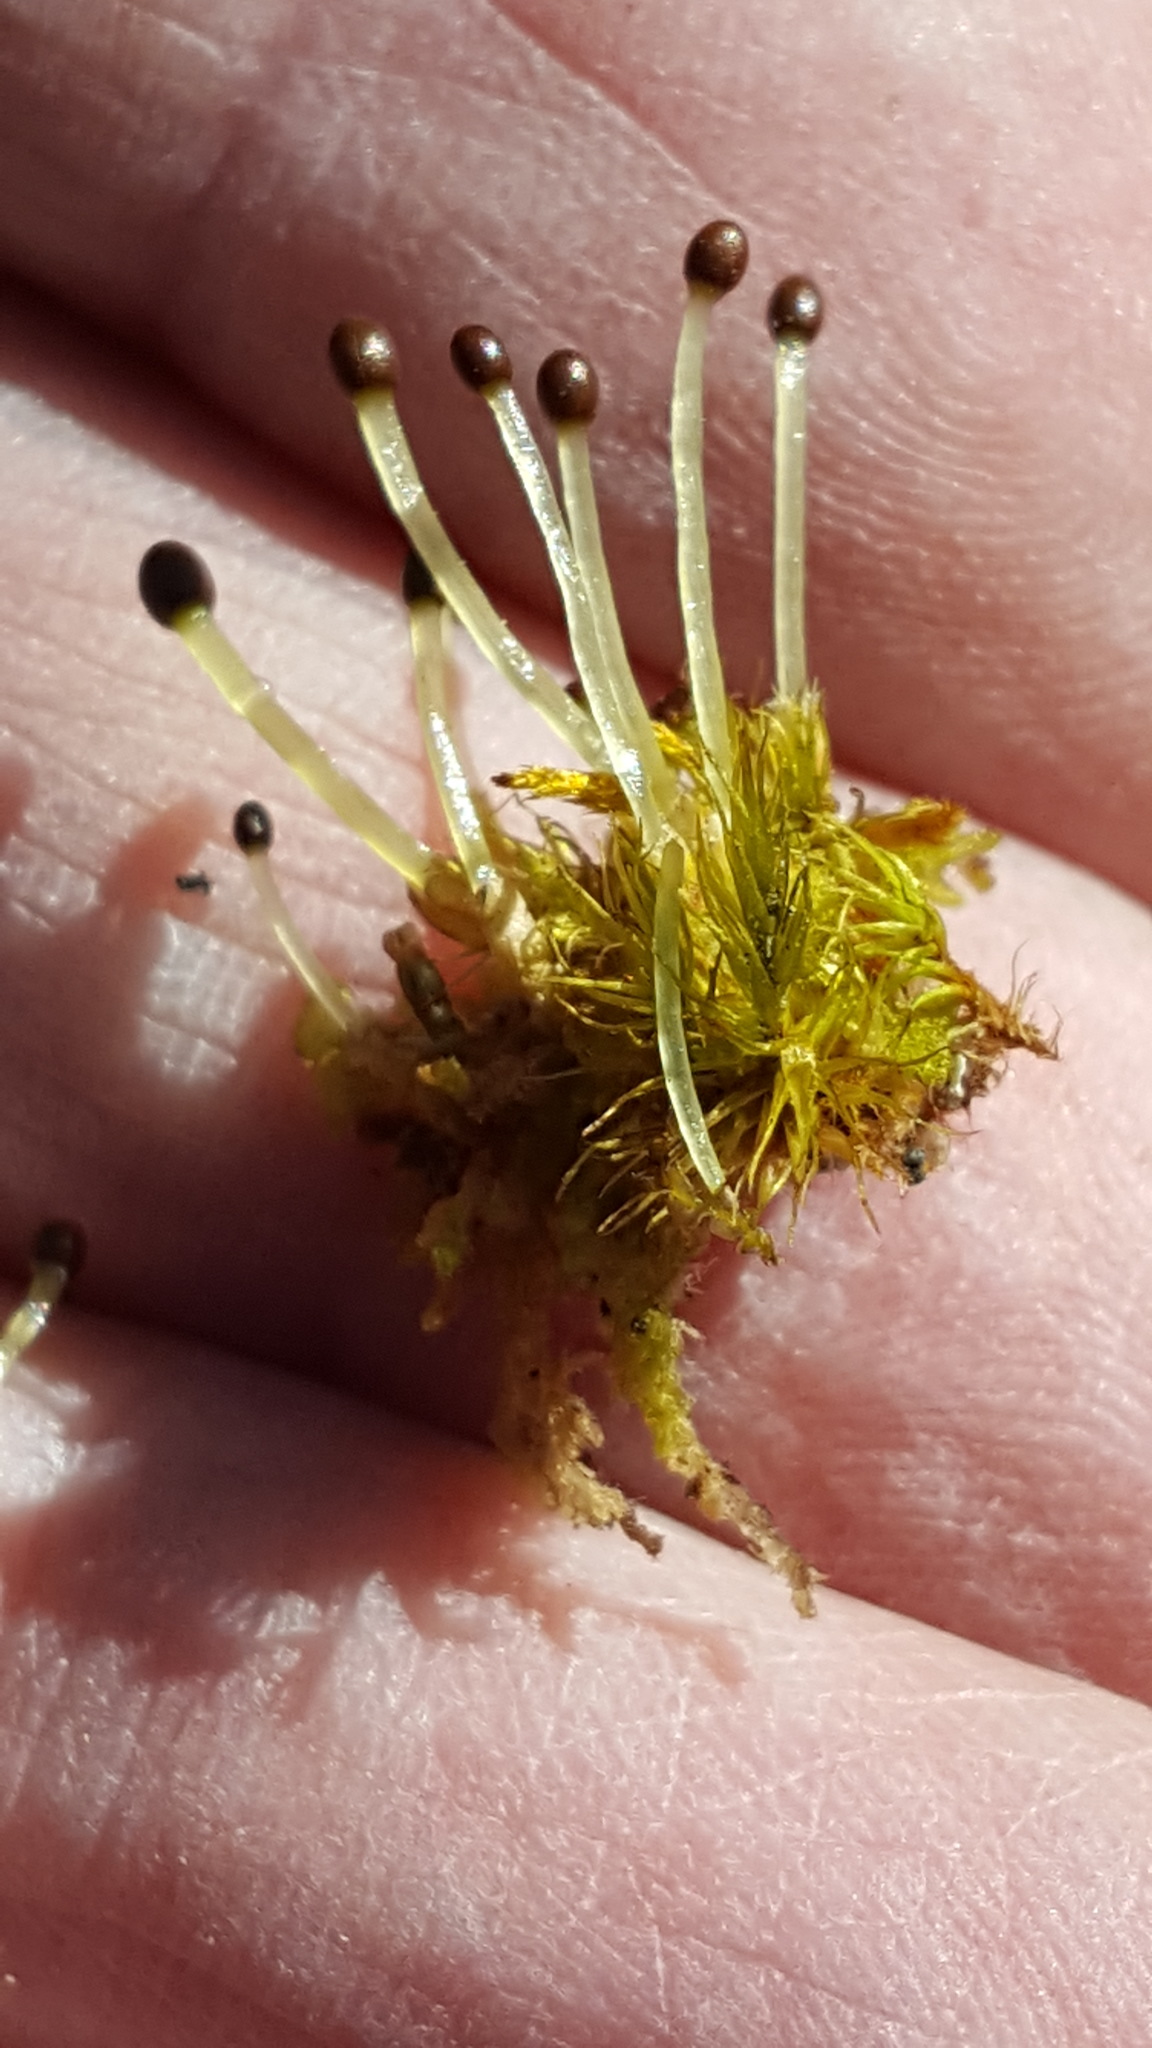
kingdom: Plantae
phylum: Marchantiophyta
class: Jungermanniopsida
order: Ptilidiales
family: Ptilidiaceae
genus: Ptilidium
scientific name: Ptilidium pulcherrimum
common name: Tree fringewort
